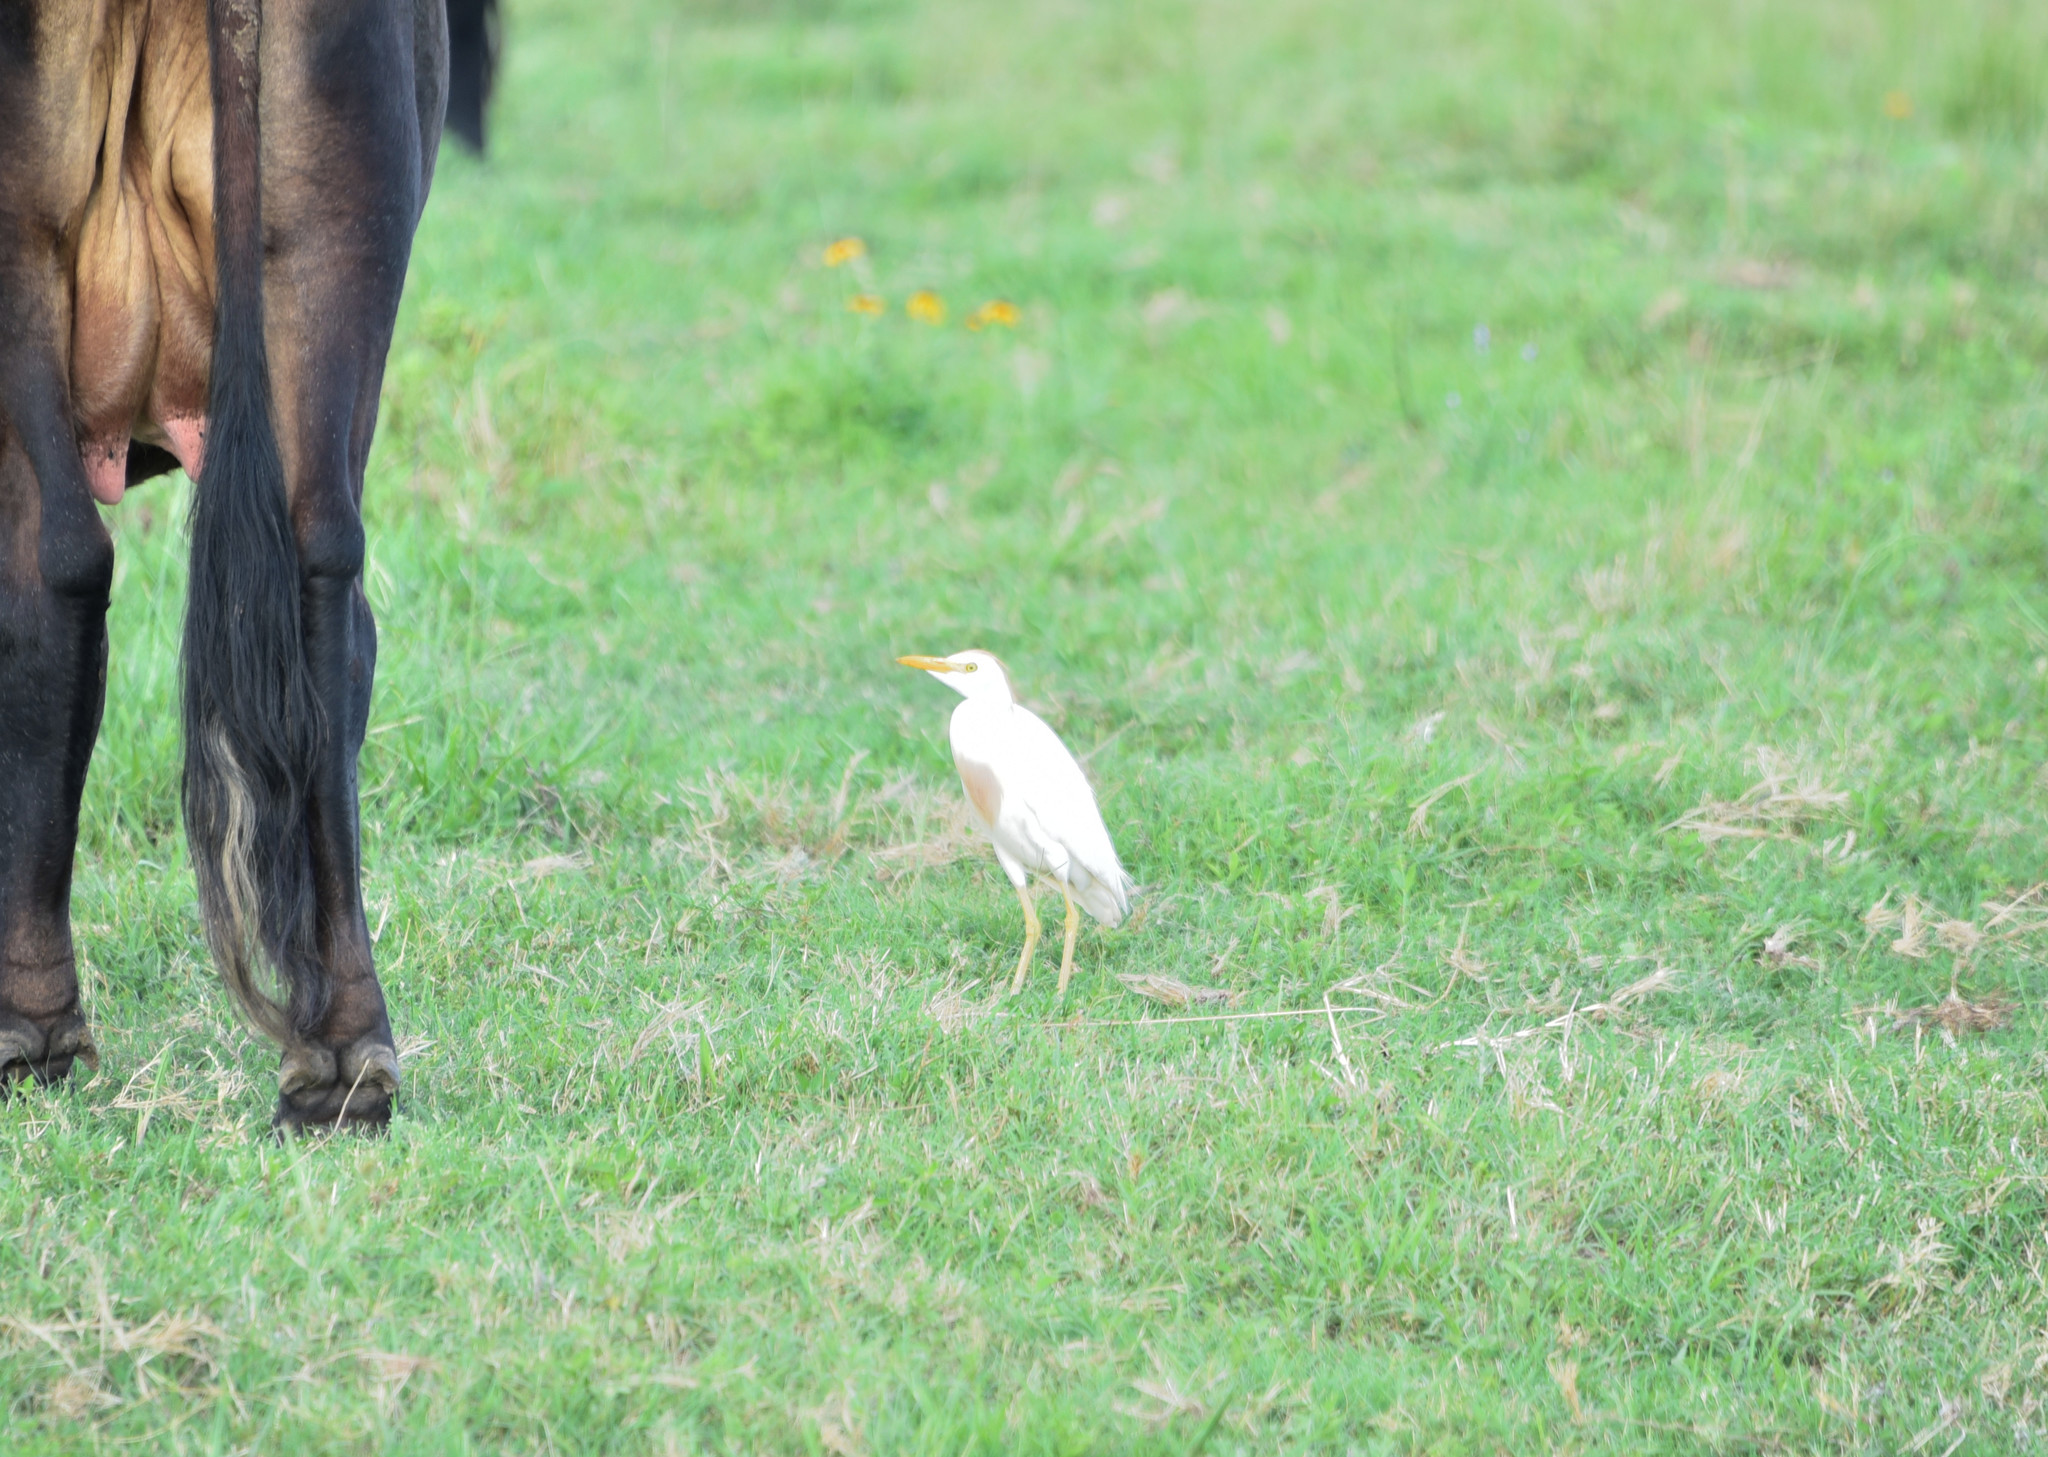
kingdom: Animalia
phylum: Chordata
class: Aves
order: Pelecaniformes
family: Ardeidae
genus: Bubulcus
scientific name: Bubulcus ibis
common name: Cattle egret
